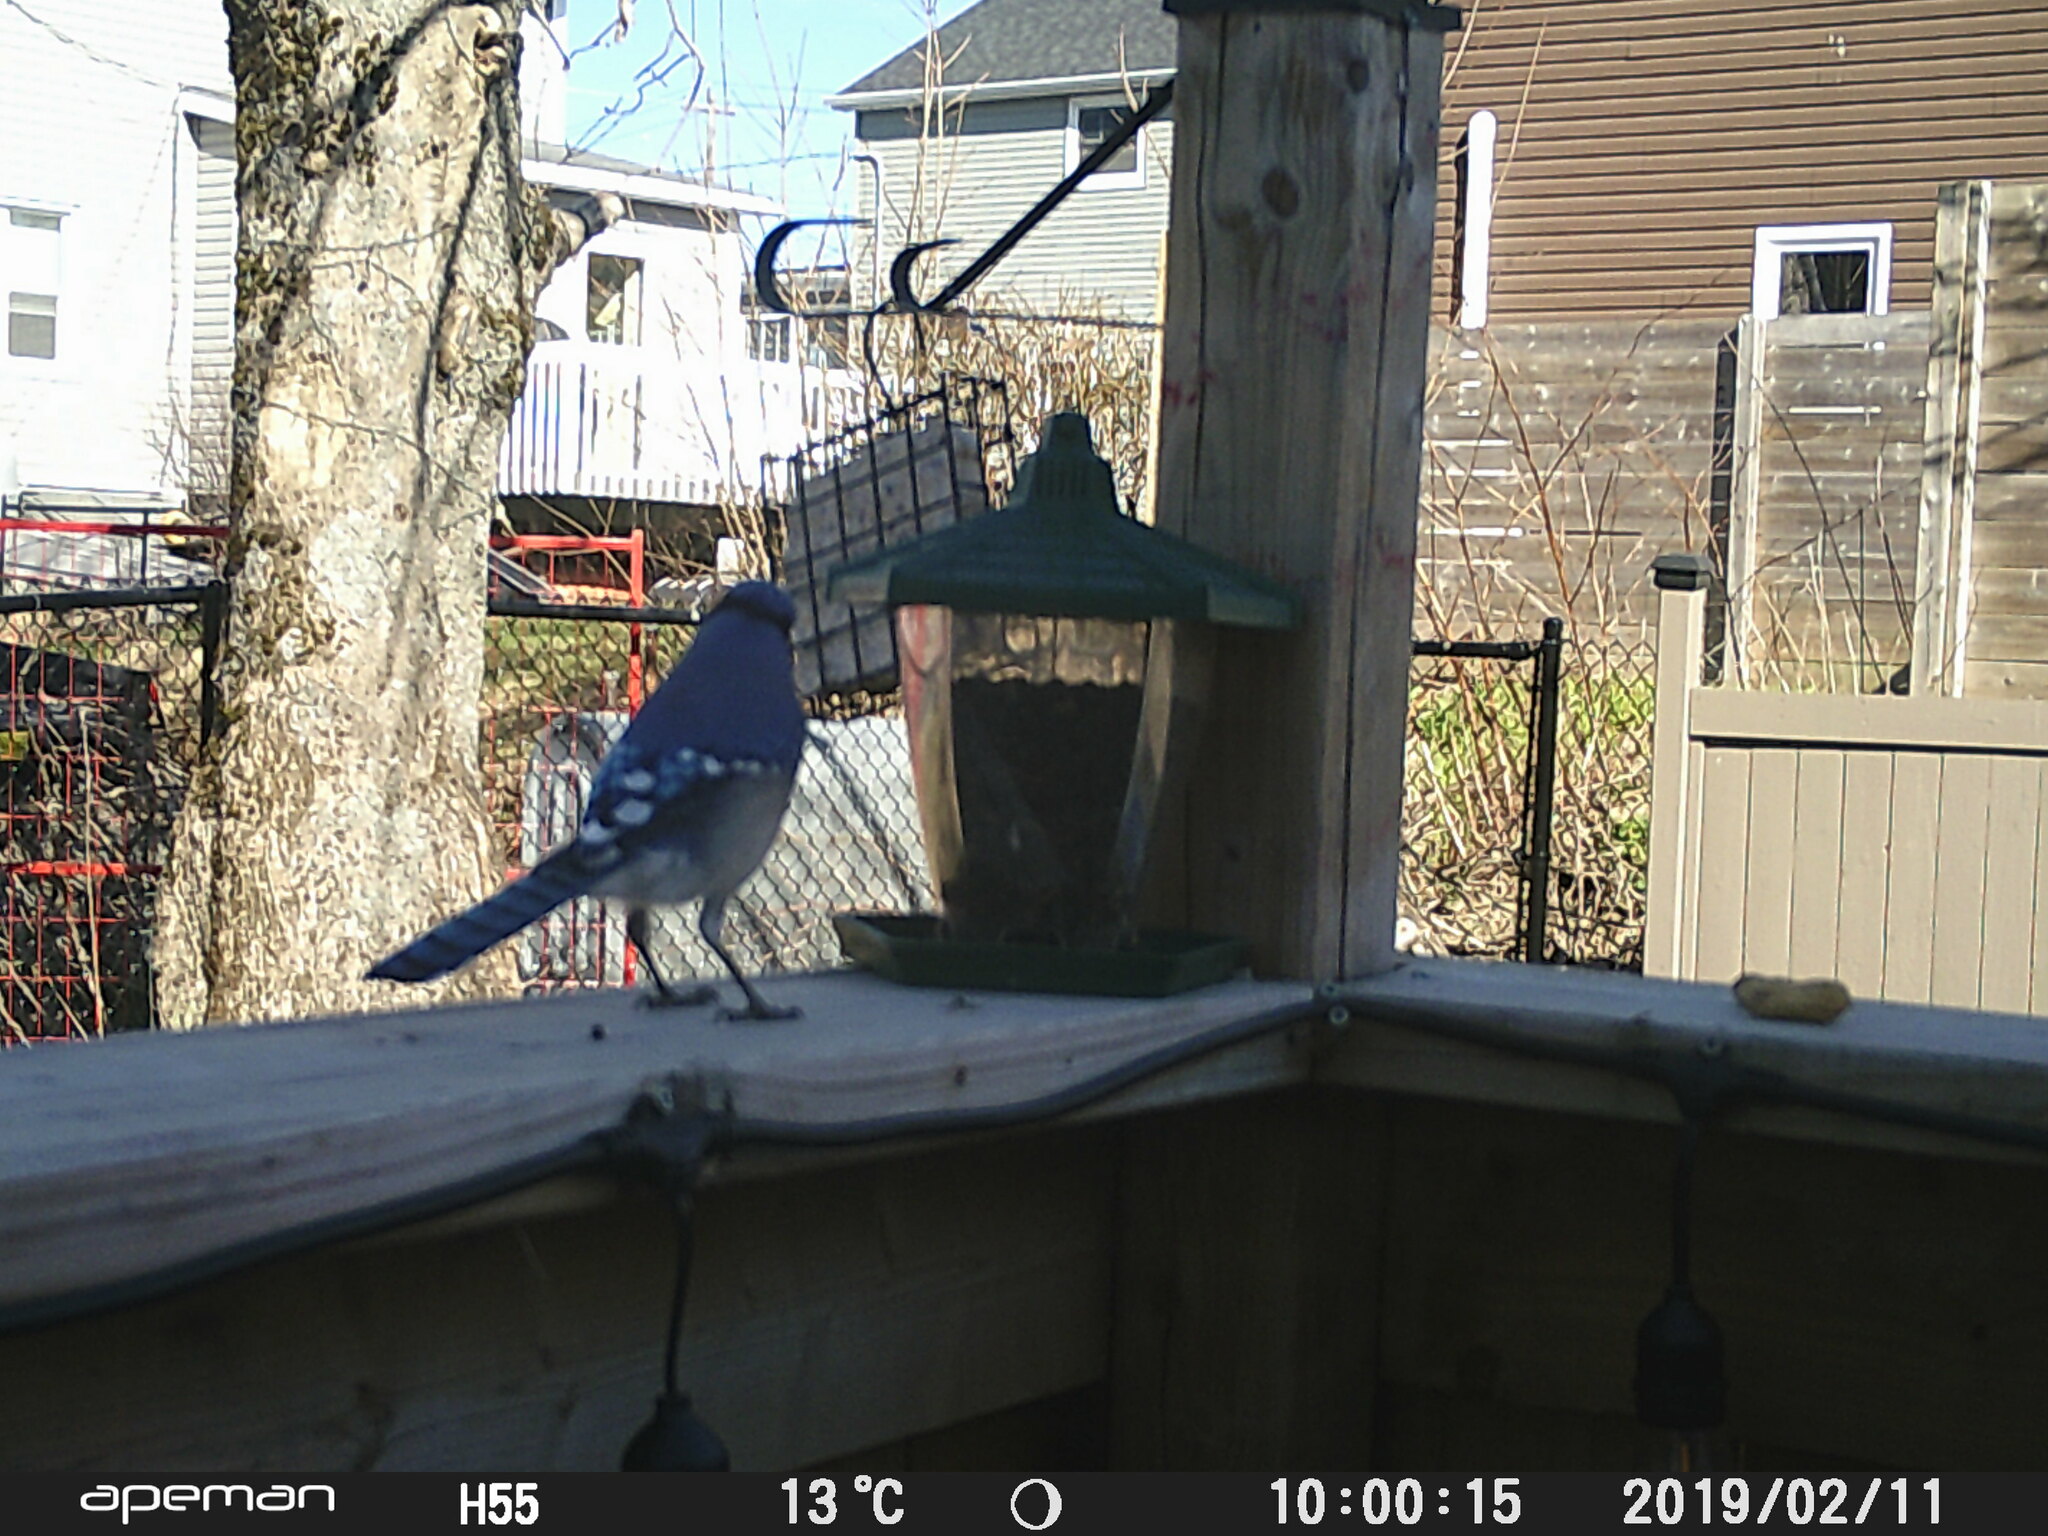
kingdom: Animalia
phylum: Chordata
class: Aves
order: Passeriformes
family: Corvidae
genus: Cyanocitta
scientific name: Cyanocitta cristata
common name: Blue jay
